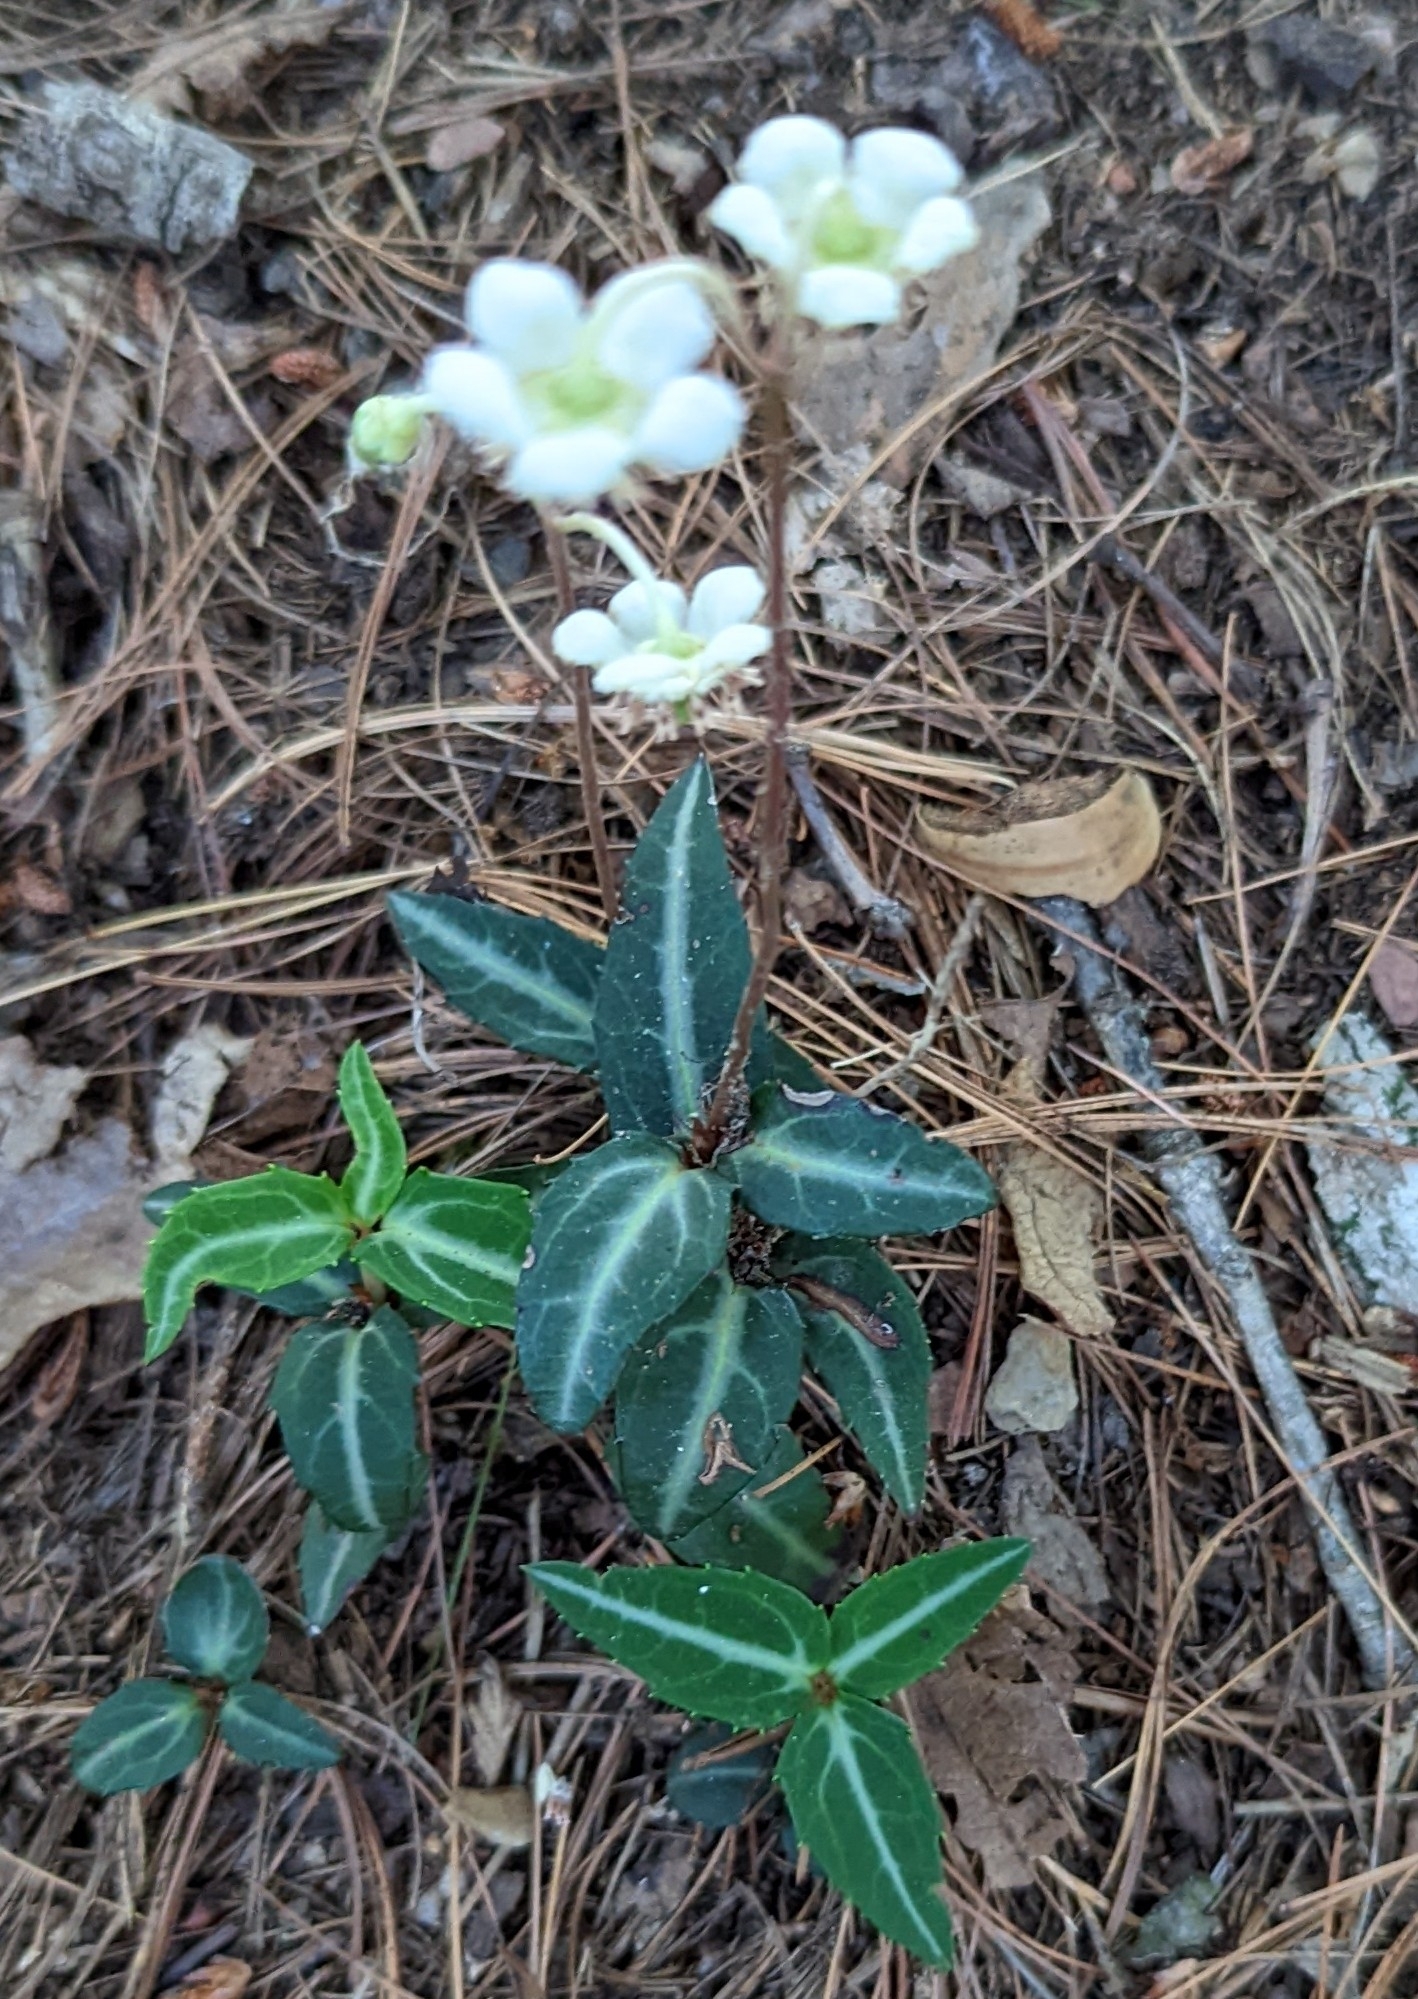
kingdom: Plantae
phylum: Tracheophyta
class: Magnoliopsida
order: Ericales
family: Ericaceae
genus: Chimaphila
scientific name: Chimaphila maculata
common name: Spotted pipsissewa
